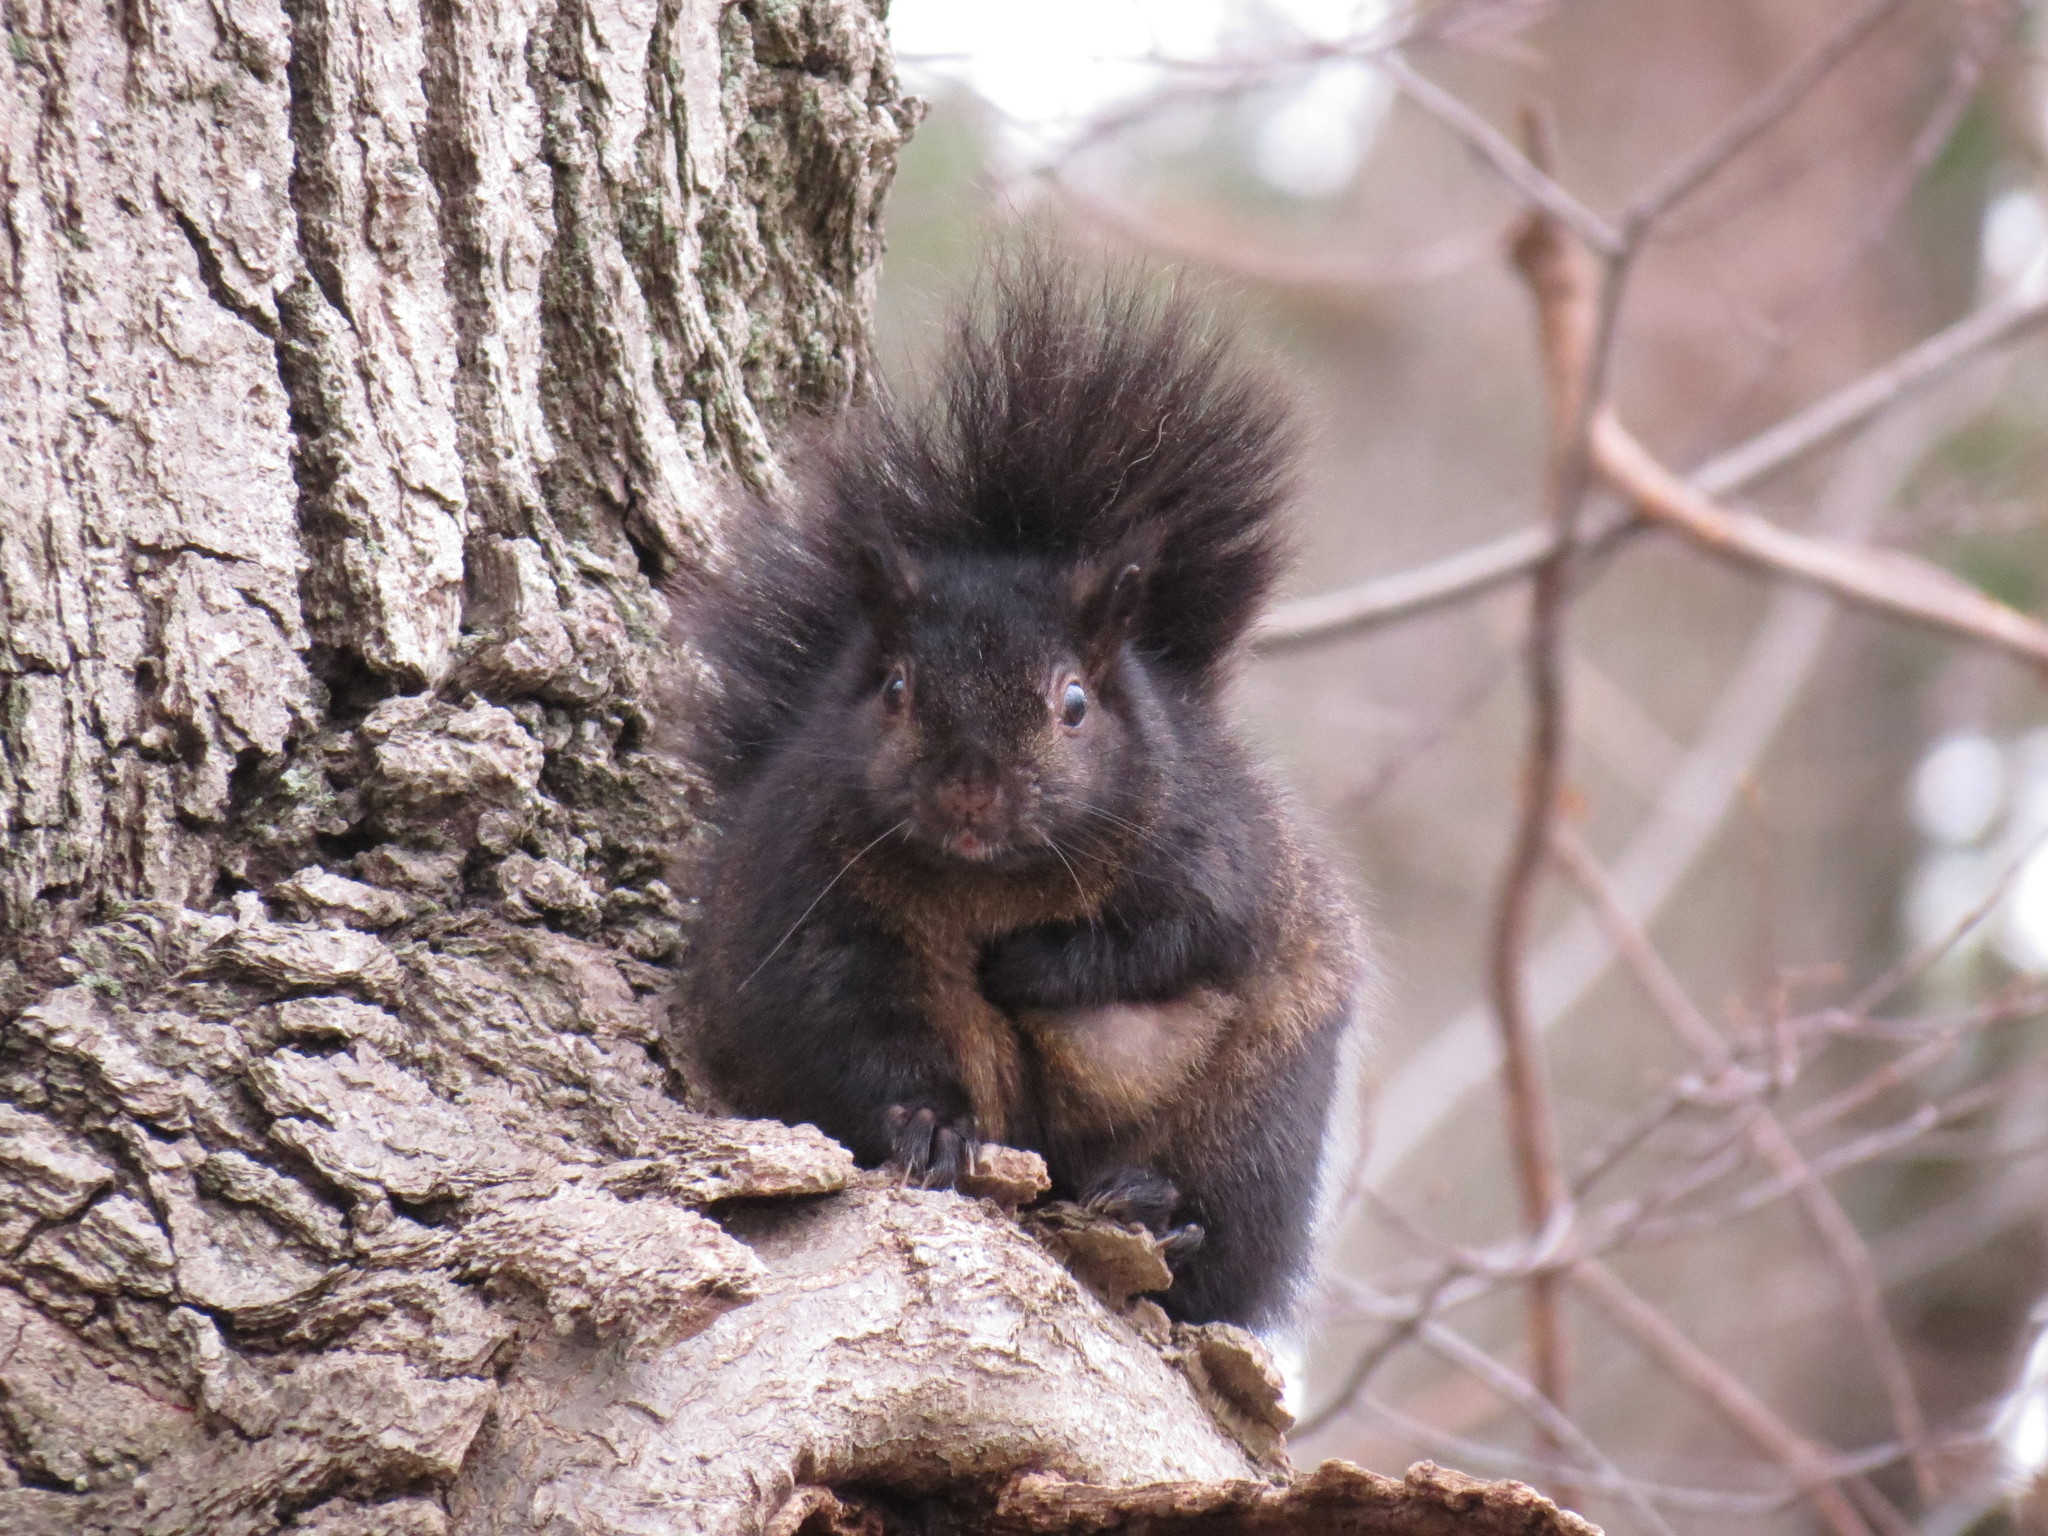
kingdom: Animalia
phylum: Chordata
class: Mammalia
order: Rodentia
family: Sciuridae
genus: Sciurus
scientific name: Sciurus carolinensis
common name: Eastern gray squirrel
